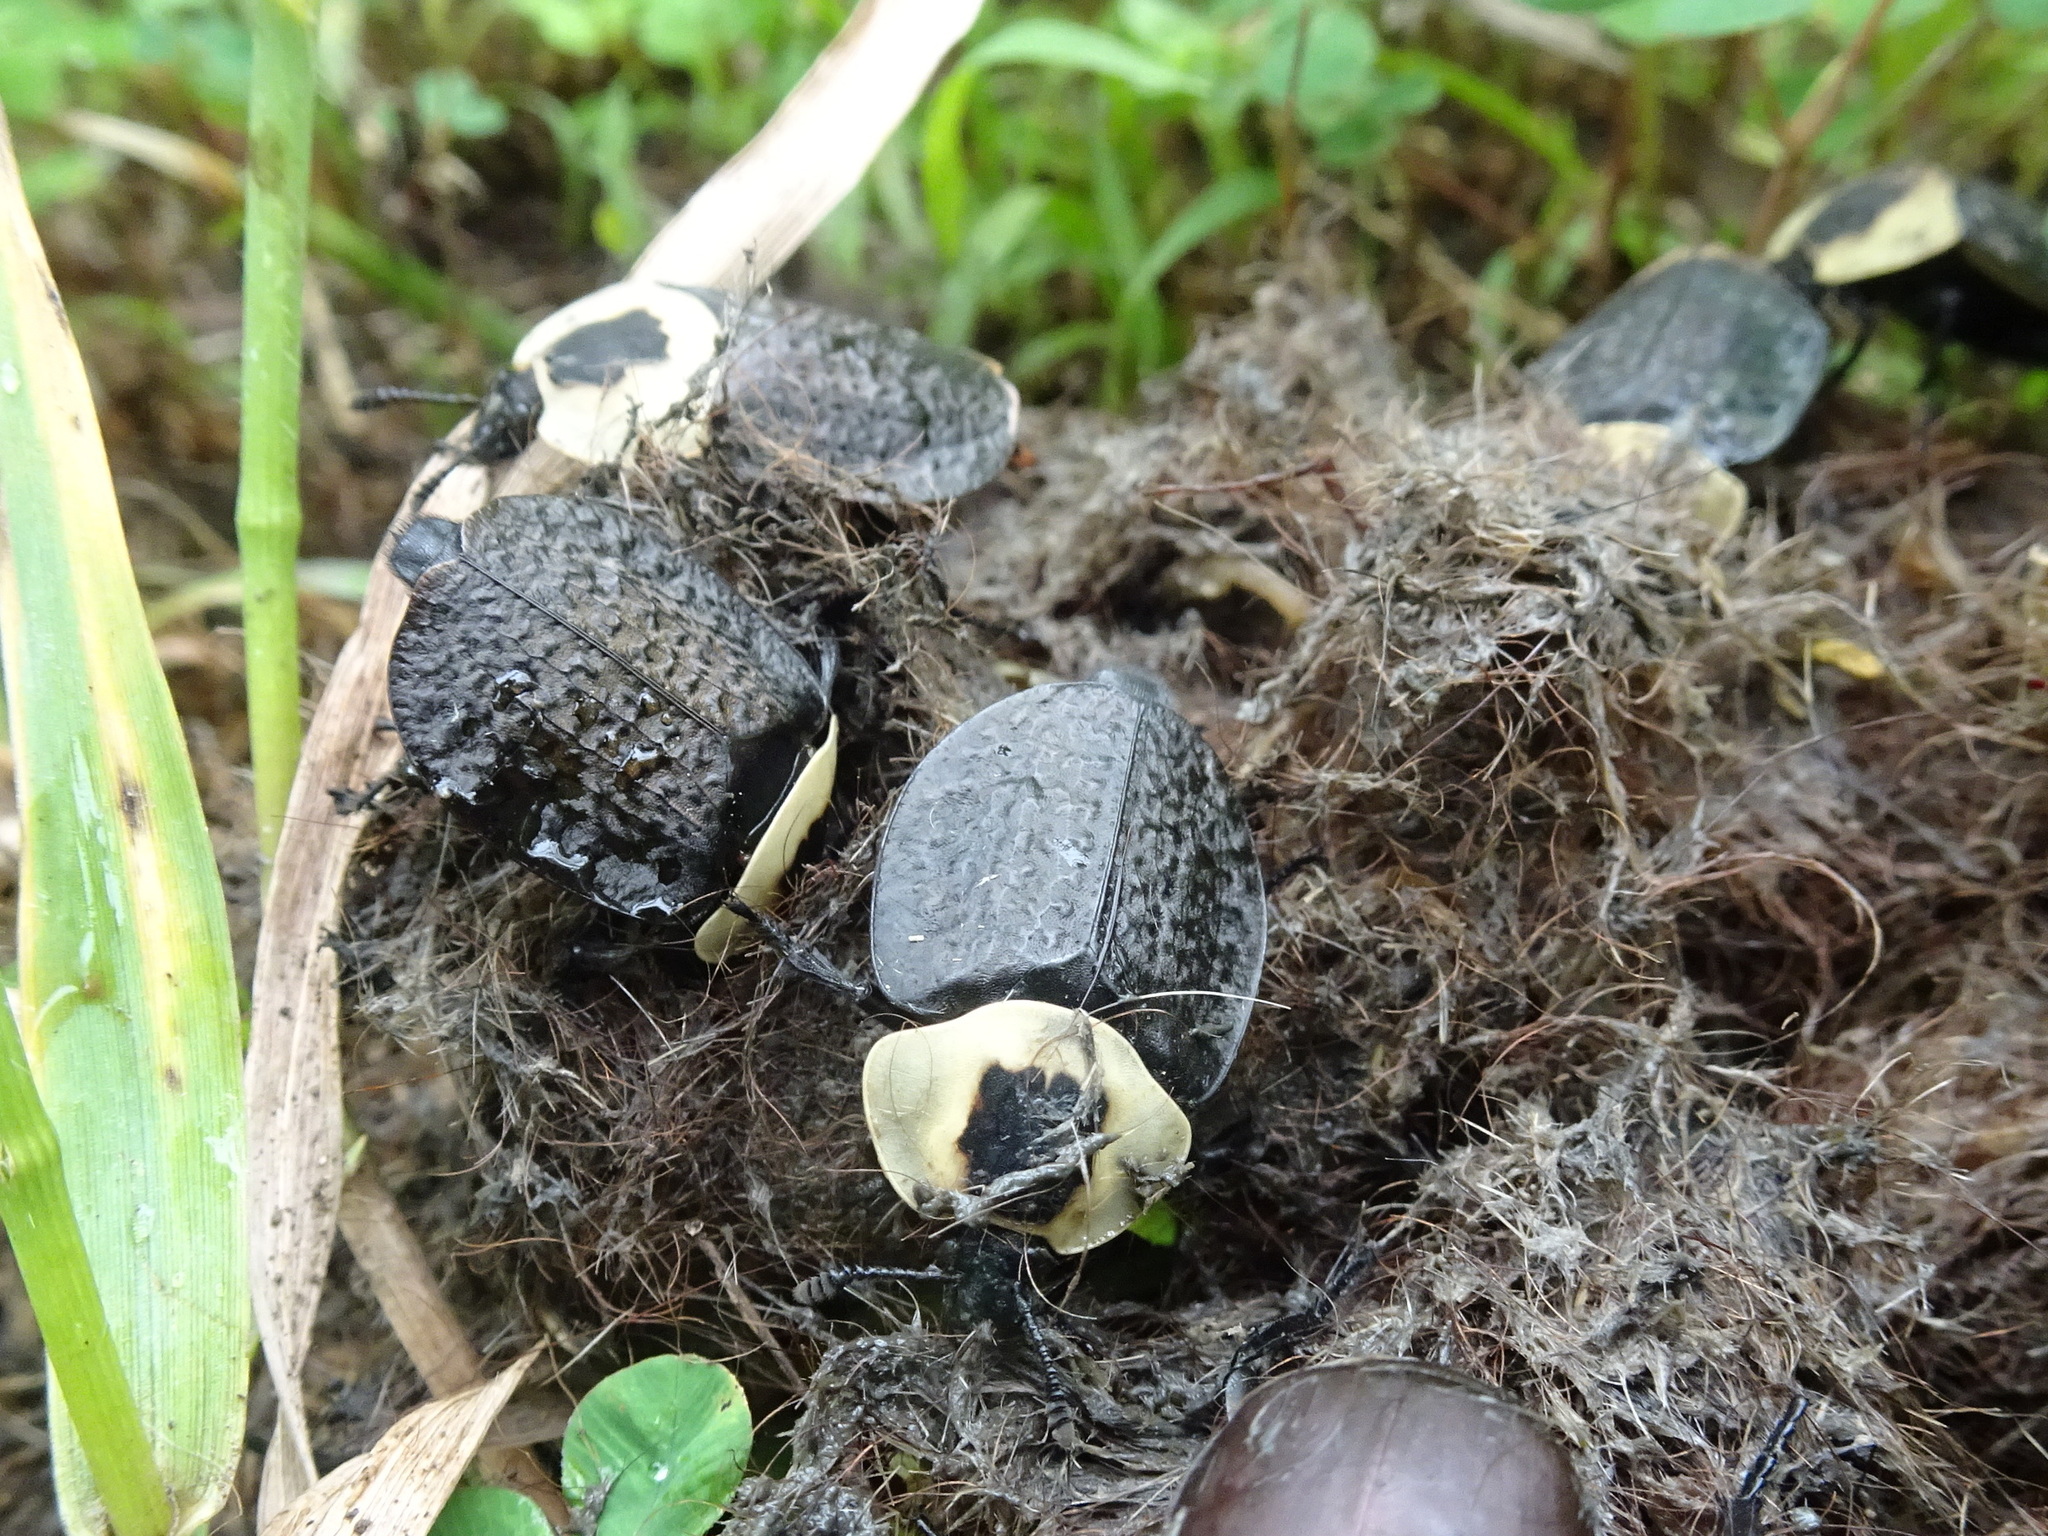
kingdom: Animalia
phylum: Arthropoda
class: Insecta
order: Coleoptera
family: Staphylinidae
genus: Necrophila
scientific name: Necrophila americana
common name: American carrion beetle
